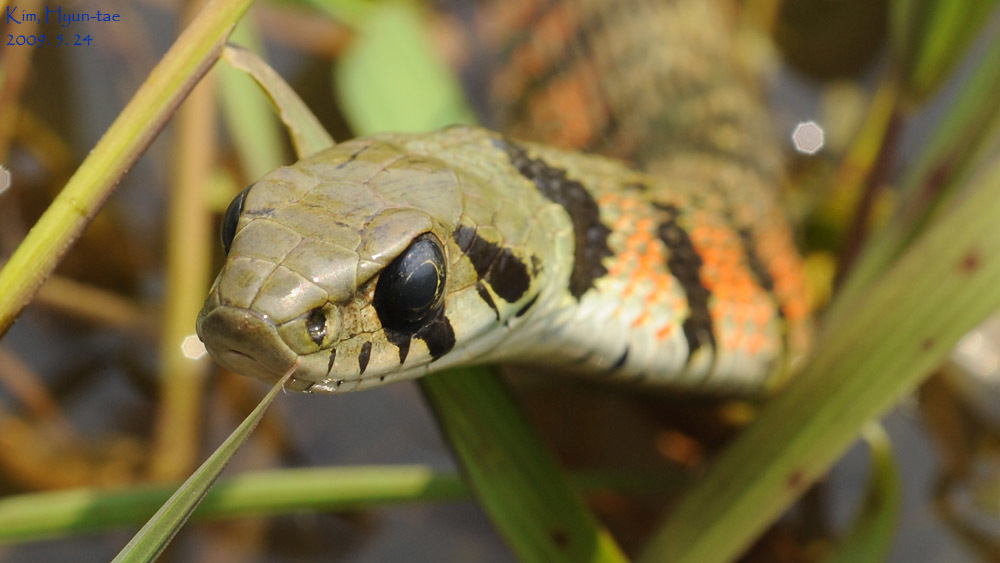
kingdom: Animalia
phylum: Chordata
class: Squamata
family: Colubridae
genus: Rhabdophis
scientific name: Rhabdophis tigrinus
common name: Tiger keelback
